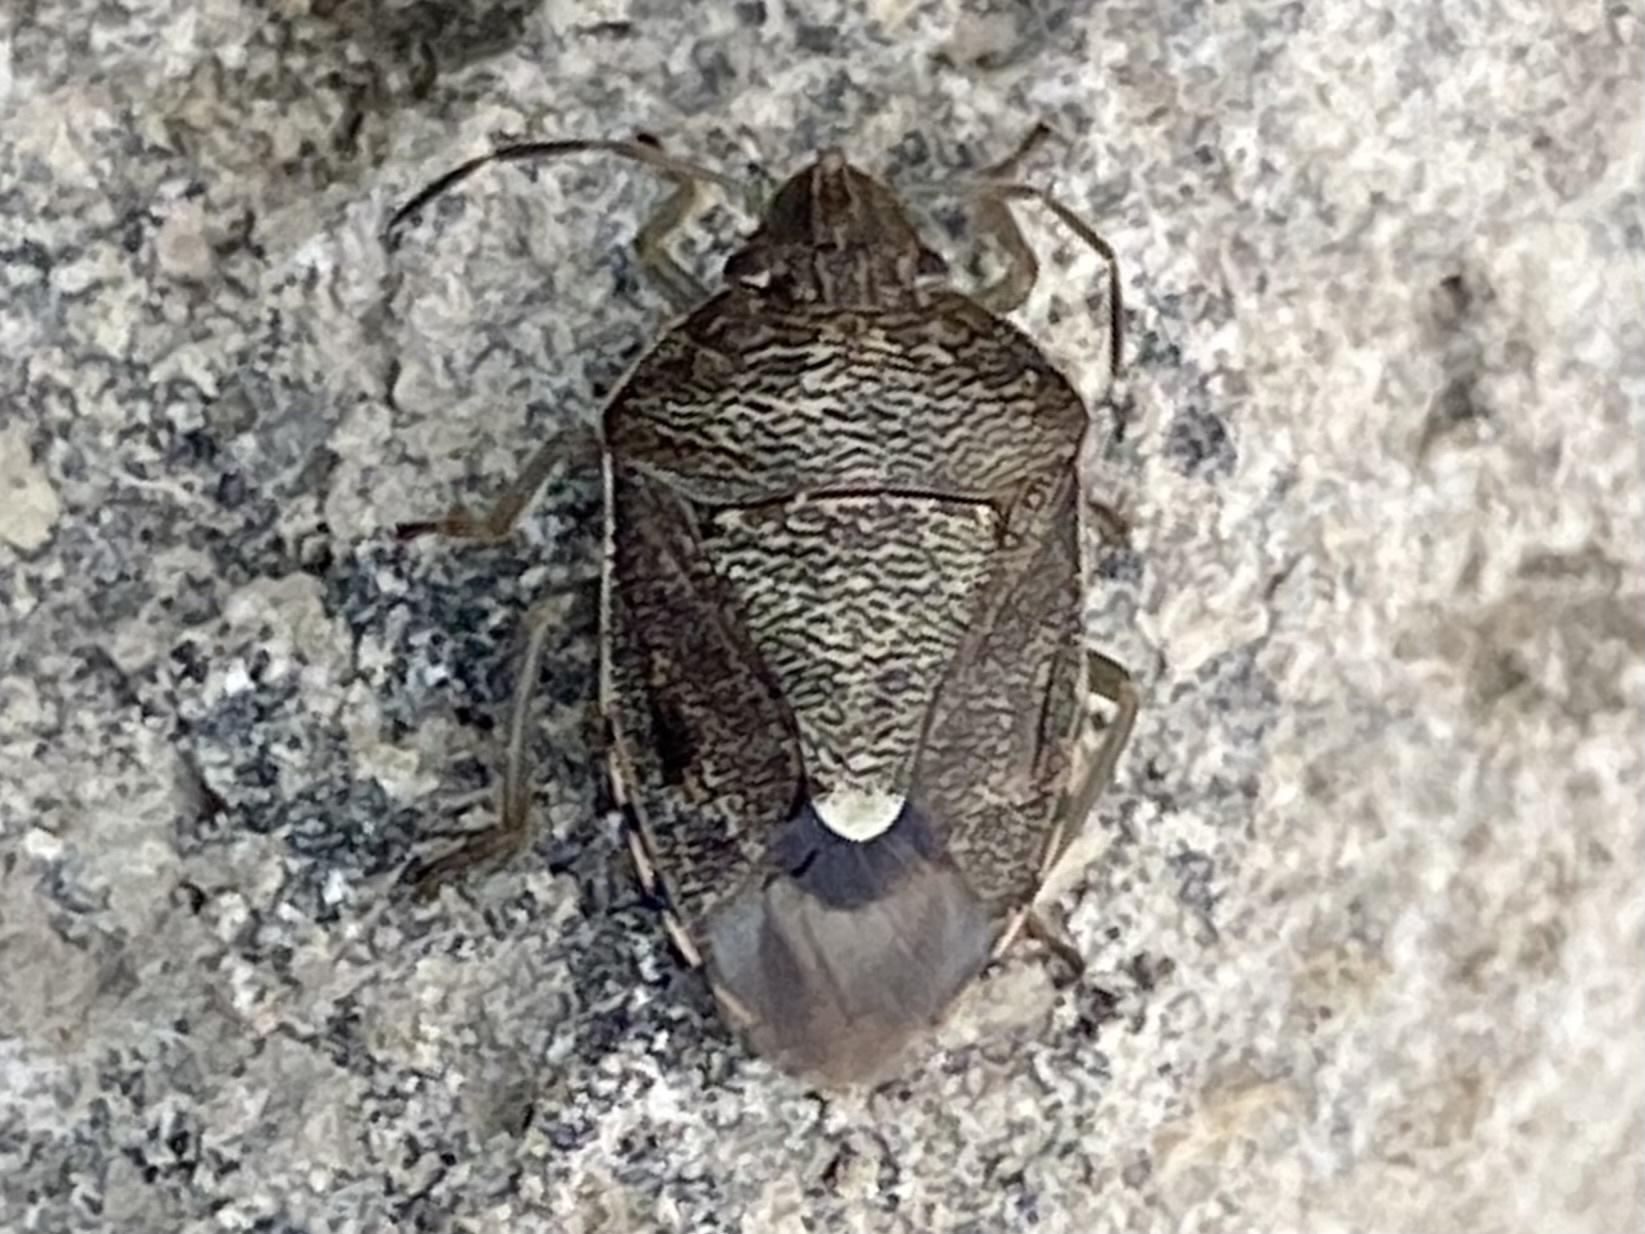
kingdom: Animalia
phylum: Arthropoda
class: Insecta
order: Hemiptera
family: Pentatomidae
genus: Banasa
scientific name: Banasa sordida
